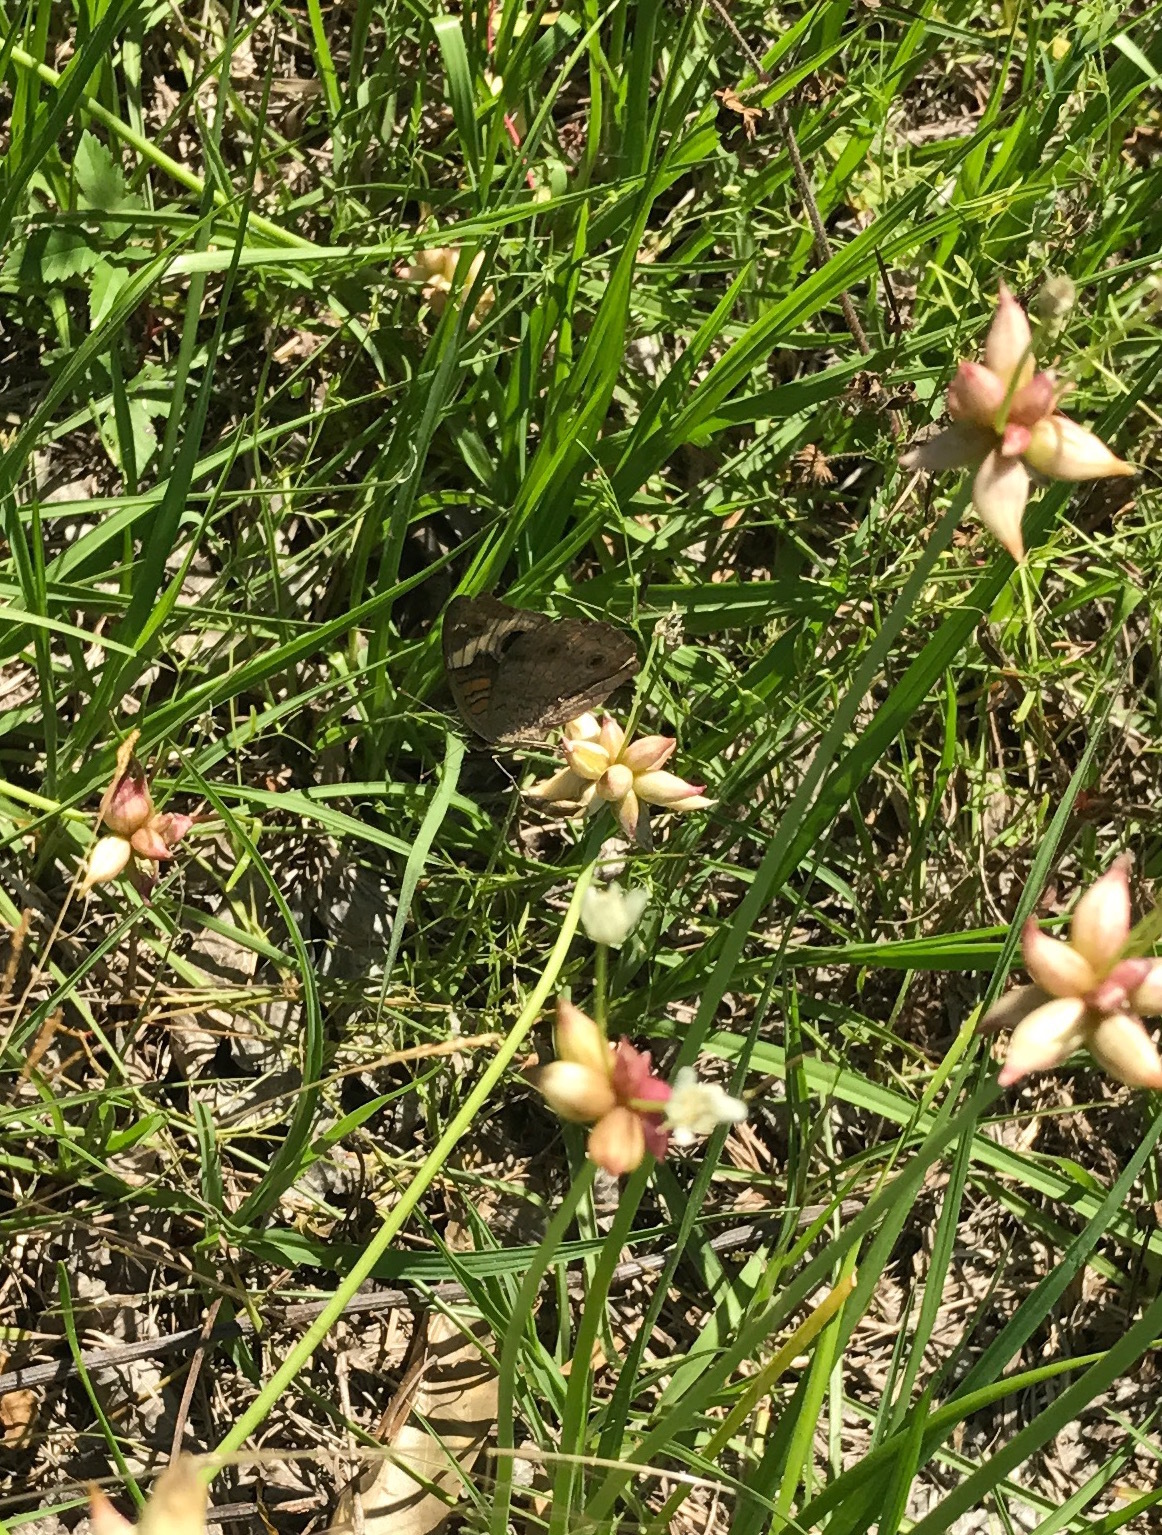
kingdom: Animalia
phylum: Arthropoda
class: Insecta
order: Lepidoptera
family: Nymphalidae
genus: Junonia
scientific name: Junonia coenia
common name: Common buckeye
